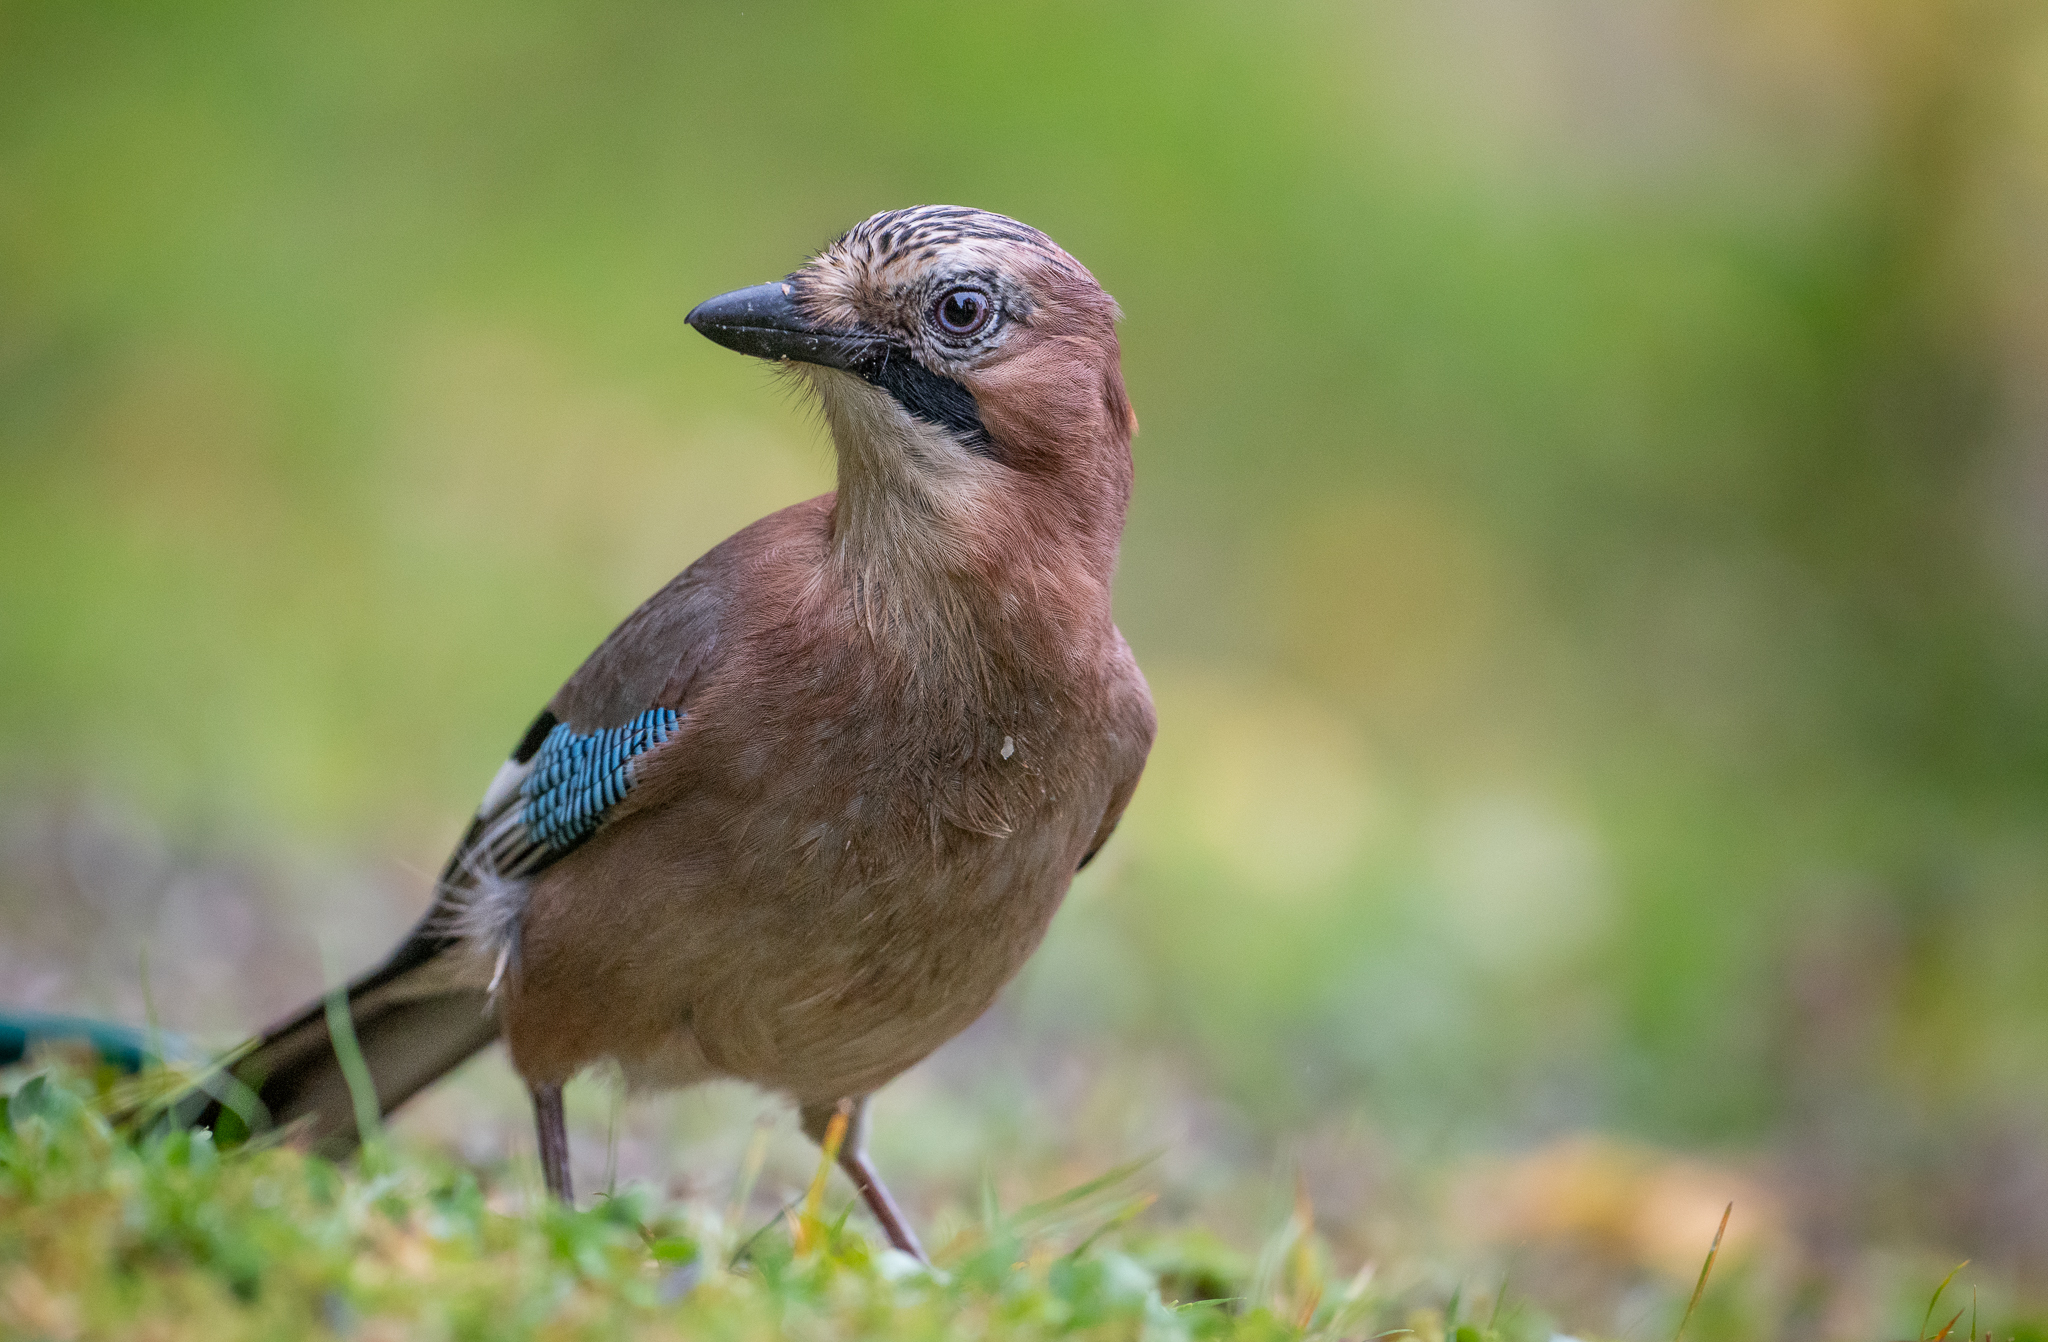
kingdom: Animalia
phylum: Chordata
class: Aves
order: Passeriformes
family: Corvidae
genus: Garrulus
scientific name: Garrulus glandarius
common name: Eurasian jay
